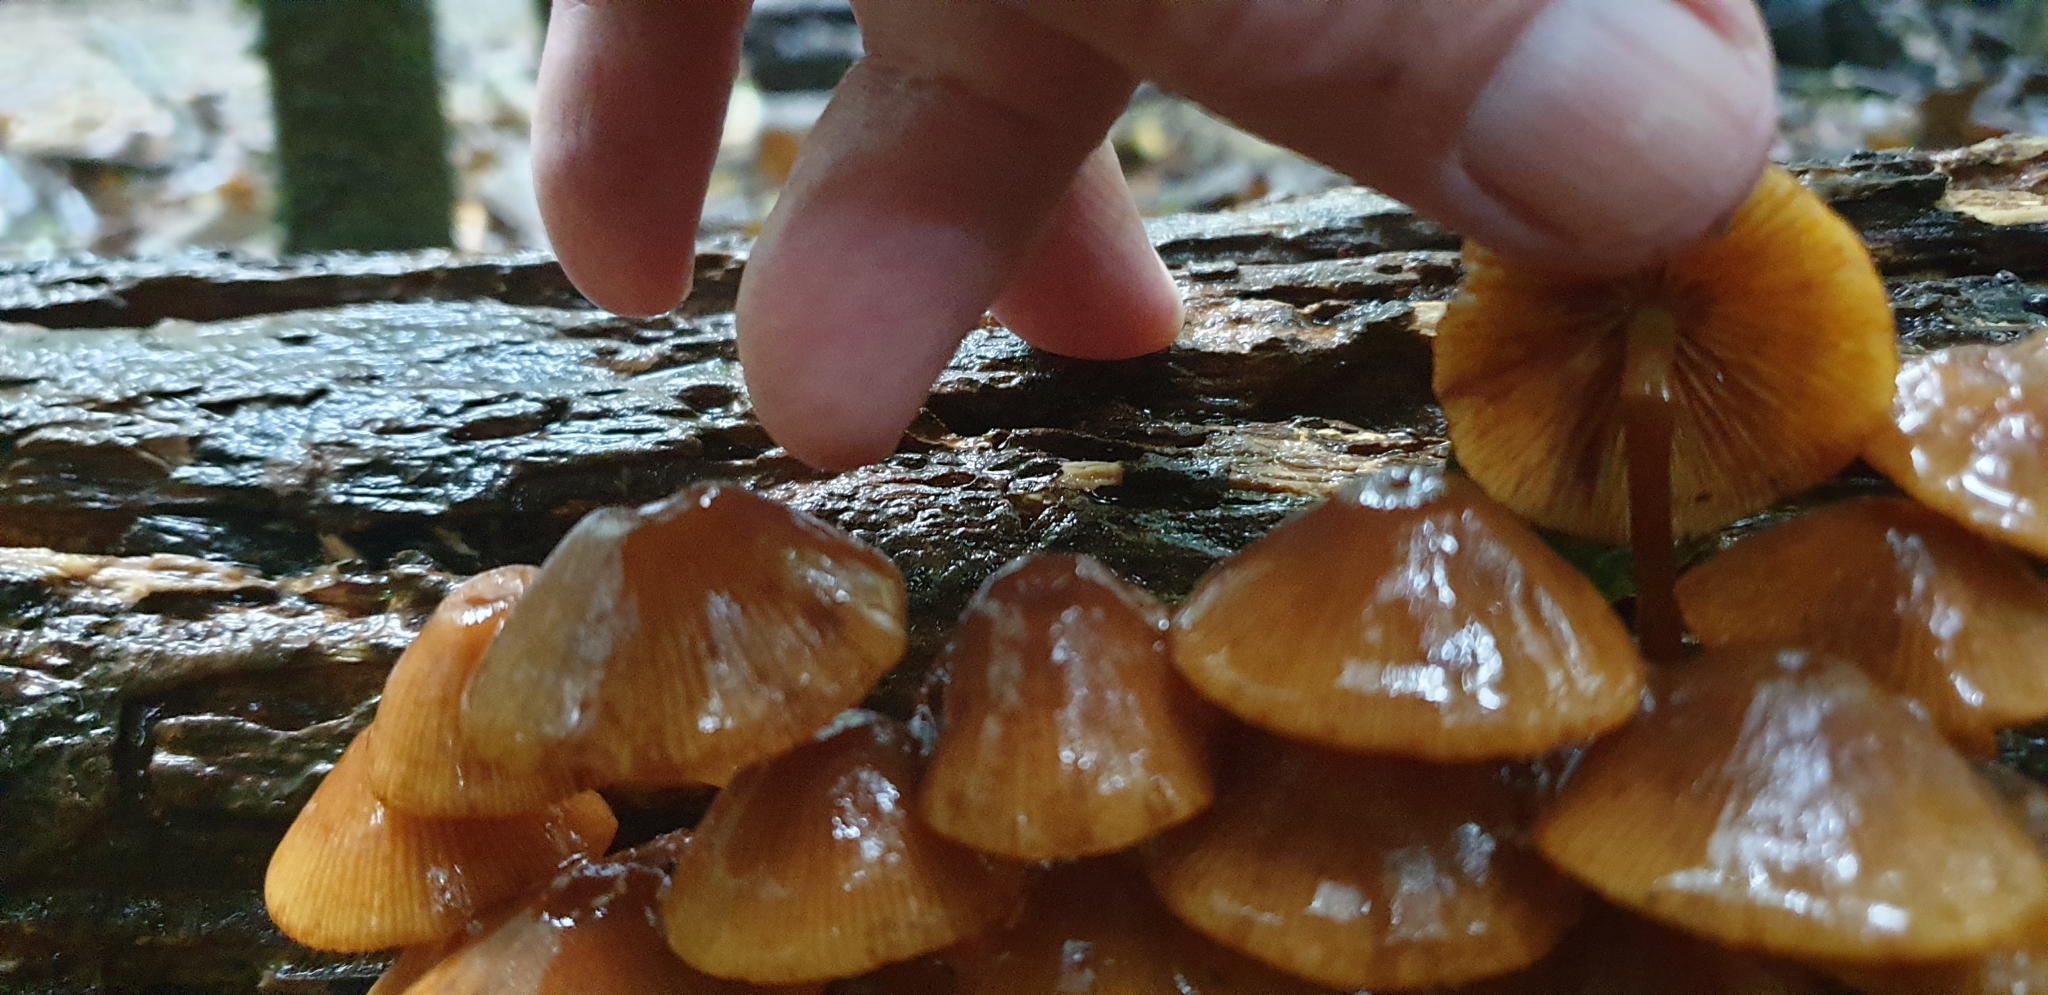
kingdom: Fungi
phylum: Basidiomycota
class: Agaricomycetes
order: Agaricales
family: Mycenaceae
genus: Mycena
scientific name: Mycena leaiana
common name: Orange mycena
